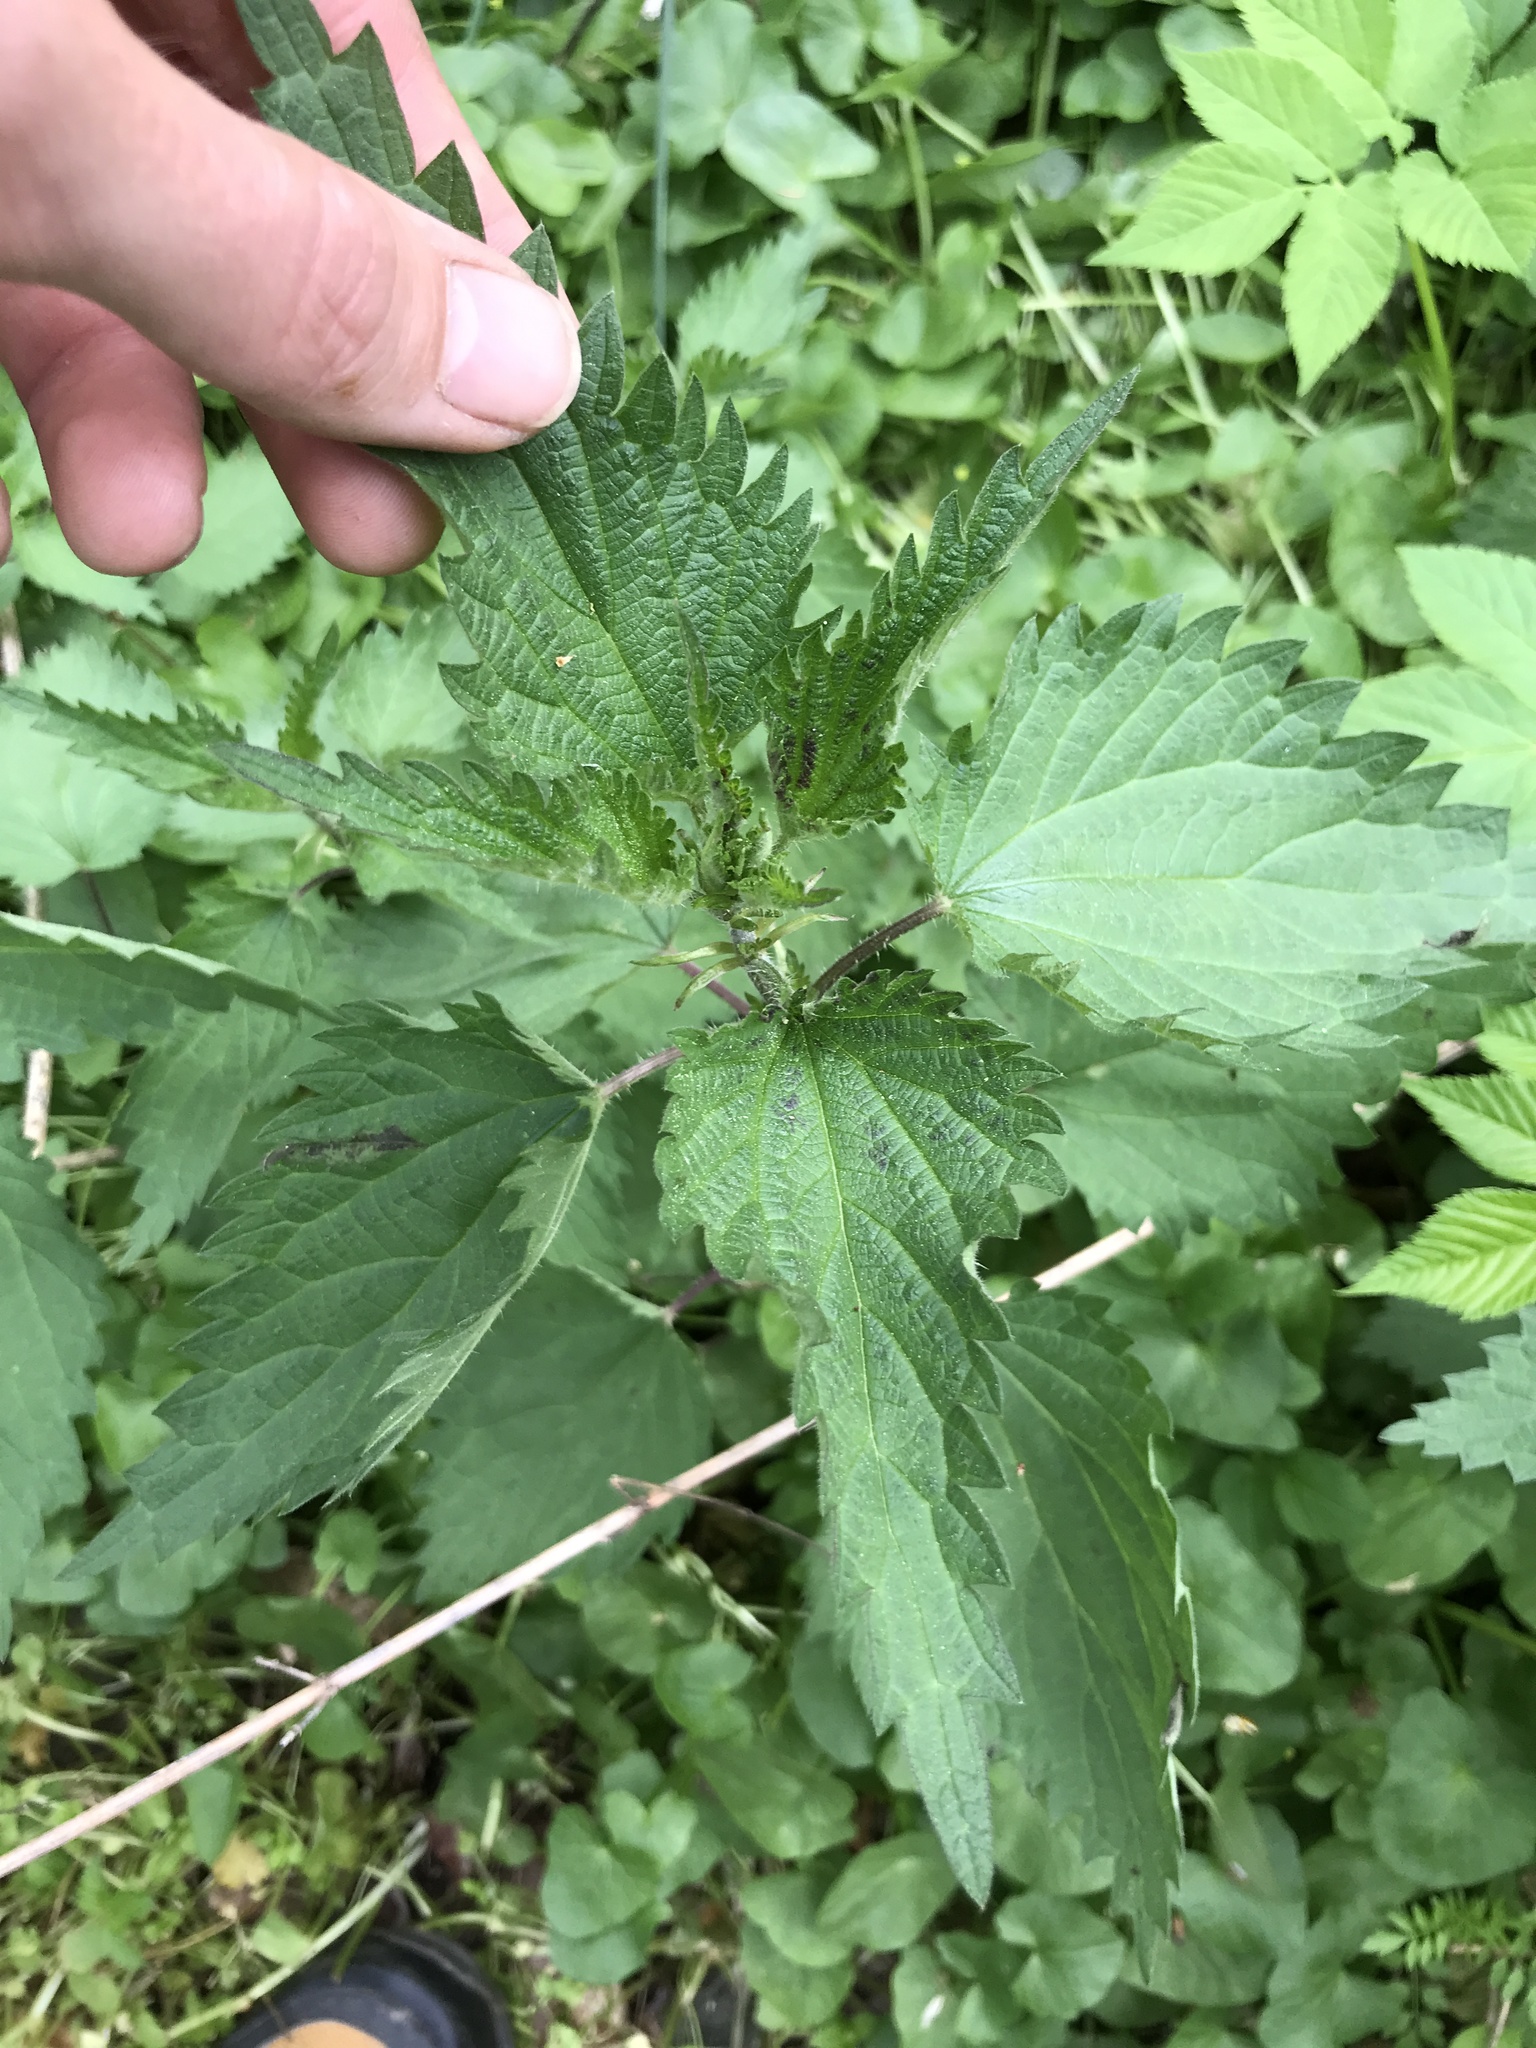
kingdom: Plantae
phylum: Tracheophyta
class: Magnoliopsida
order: Rosales
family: Urticaceae
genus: Urtica
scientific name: Urtica dioica
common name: Common nettle
